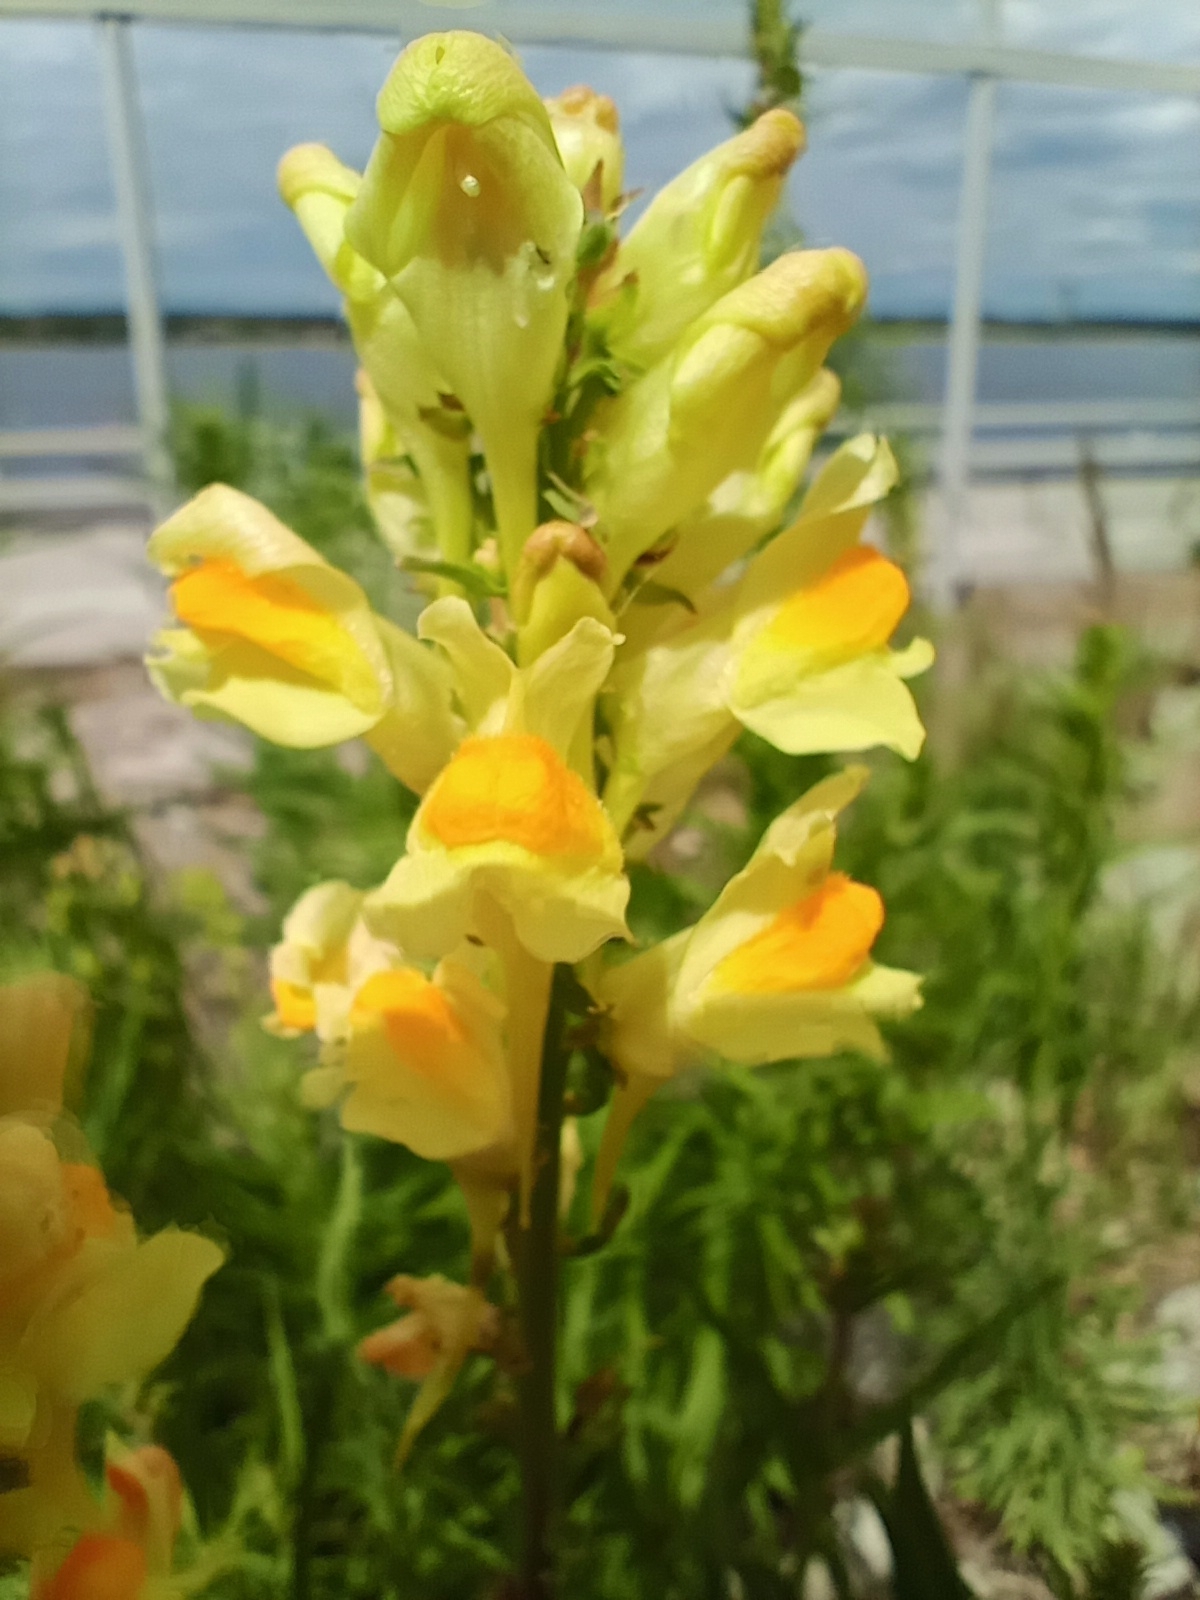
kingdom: Plantae
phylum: Tracheophyta
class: Magnoliopsida
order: Lamiales
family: Plantaginaceae
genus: Linaria
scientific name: Linaria vulgaris
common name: Butter and eggs
